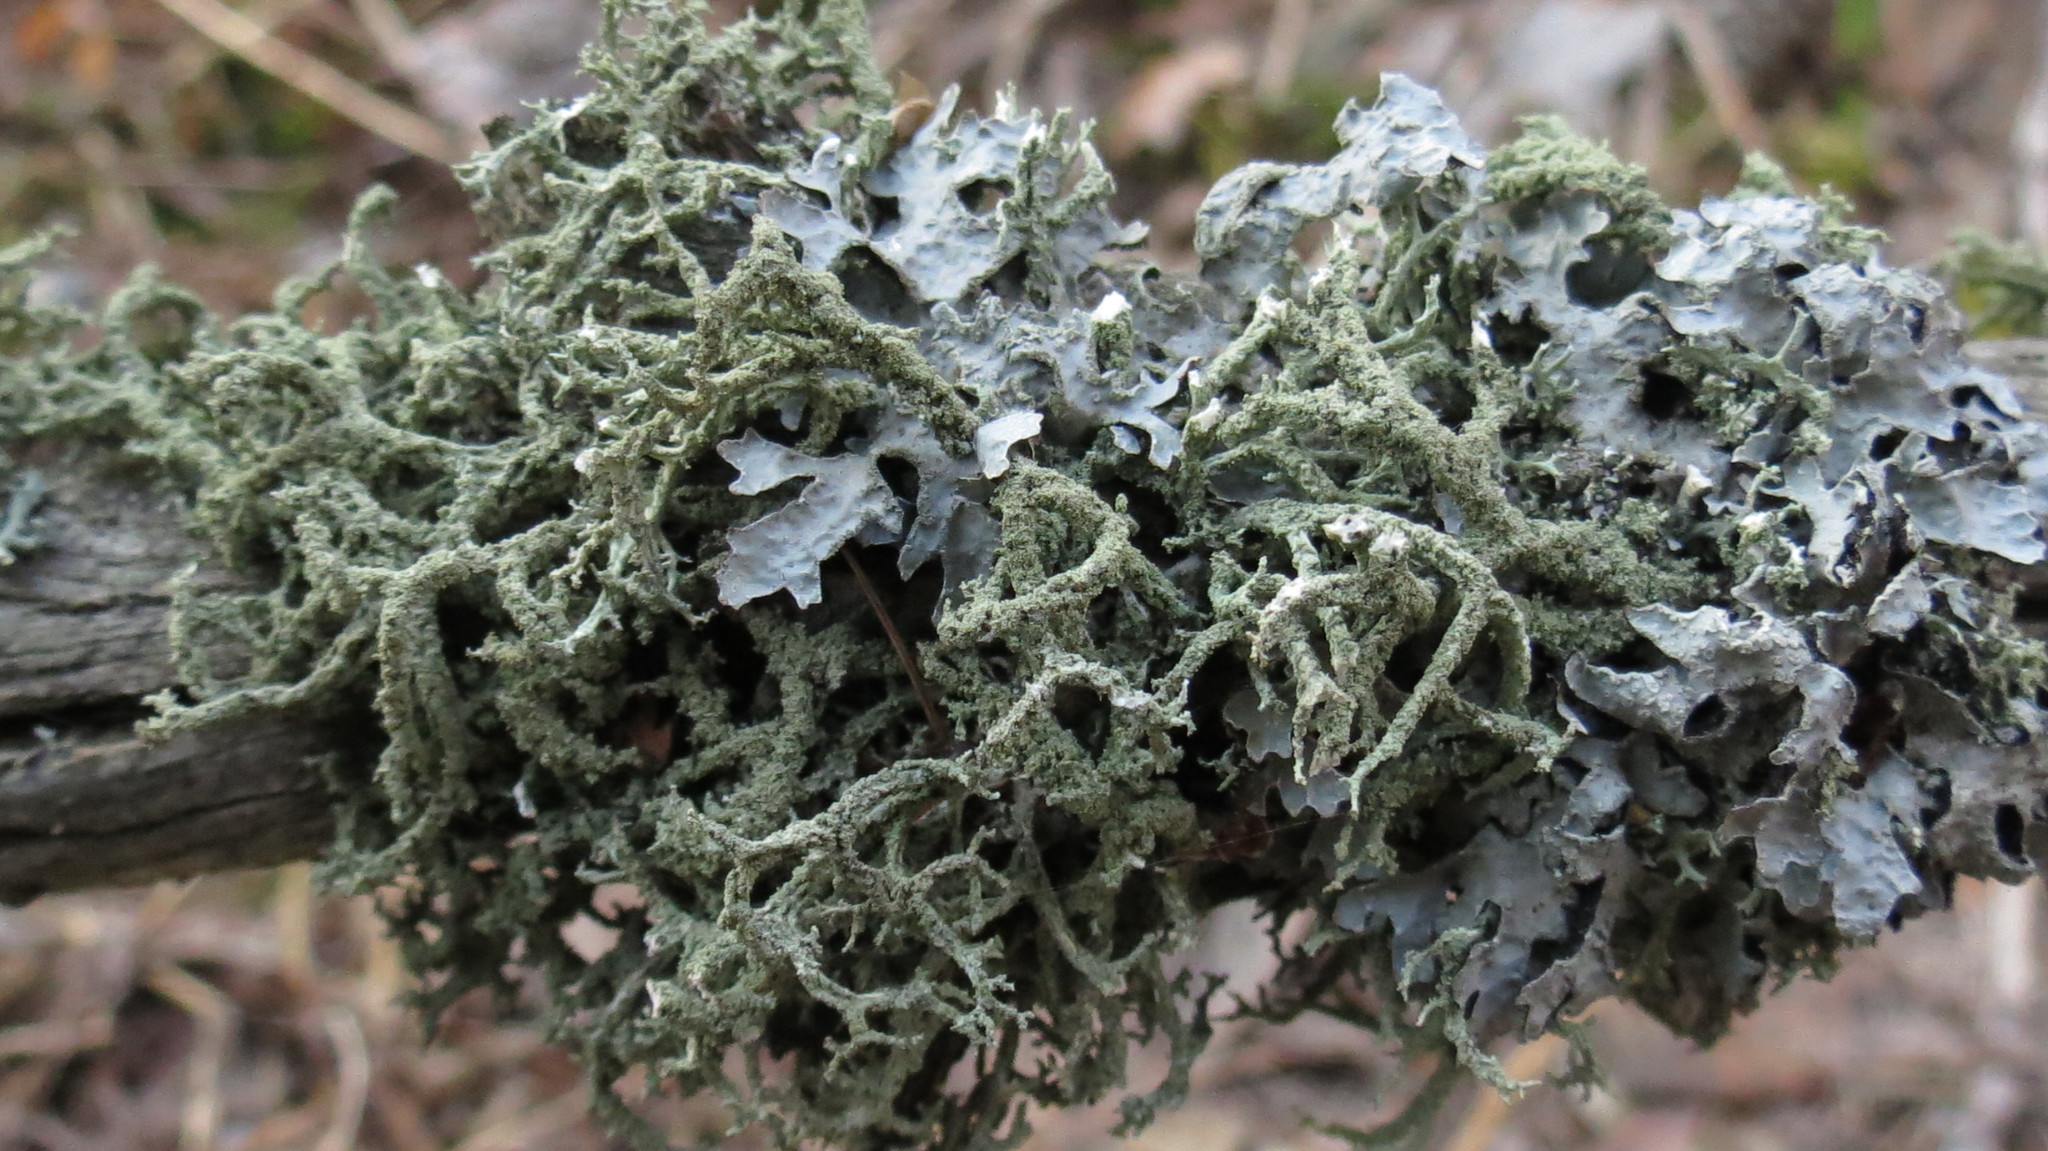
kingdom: Fungi
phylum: Ascomycota
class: Lecanoromycetes
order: Lecanorales
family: Parmeliaceae
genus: Evernia
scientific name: Evernia mesomorpha
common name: Boreal oak moss lichen
